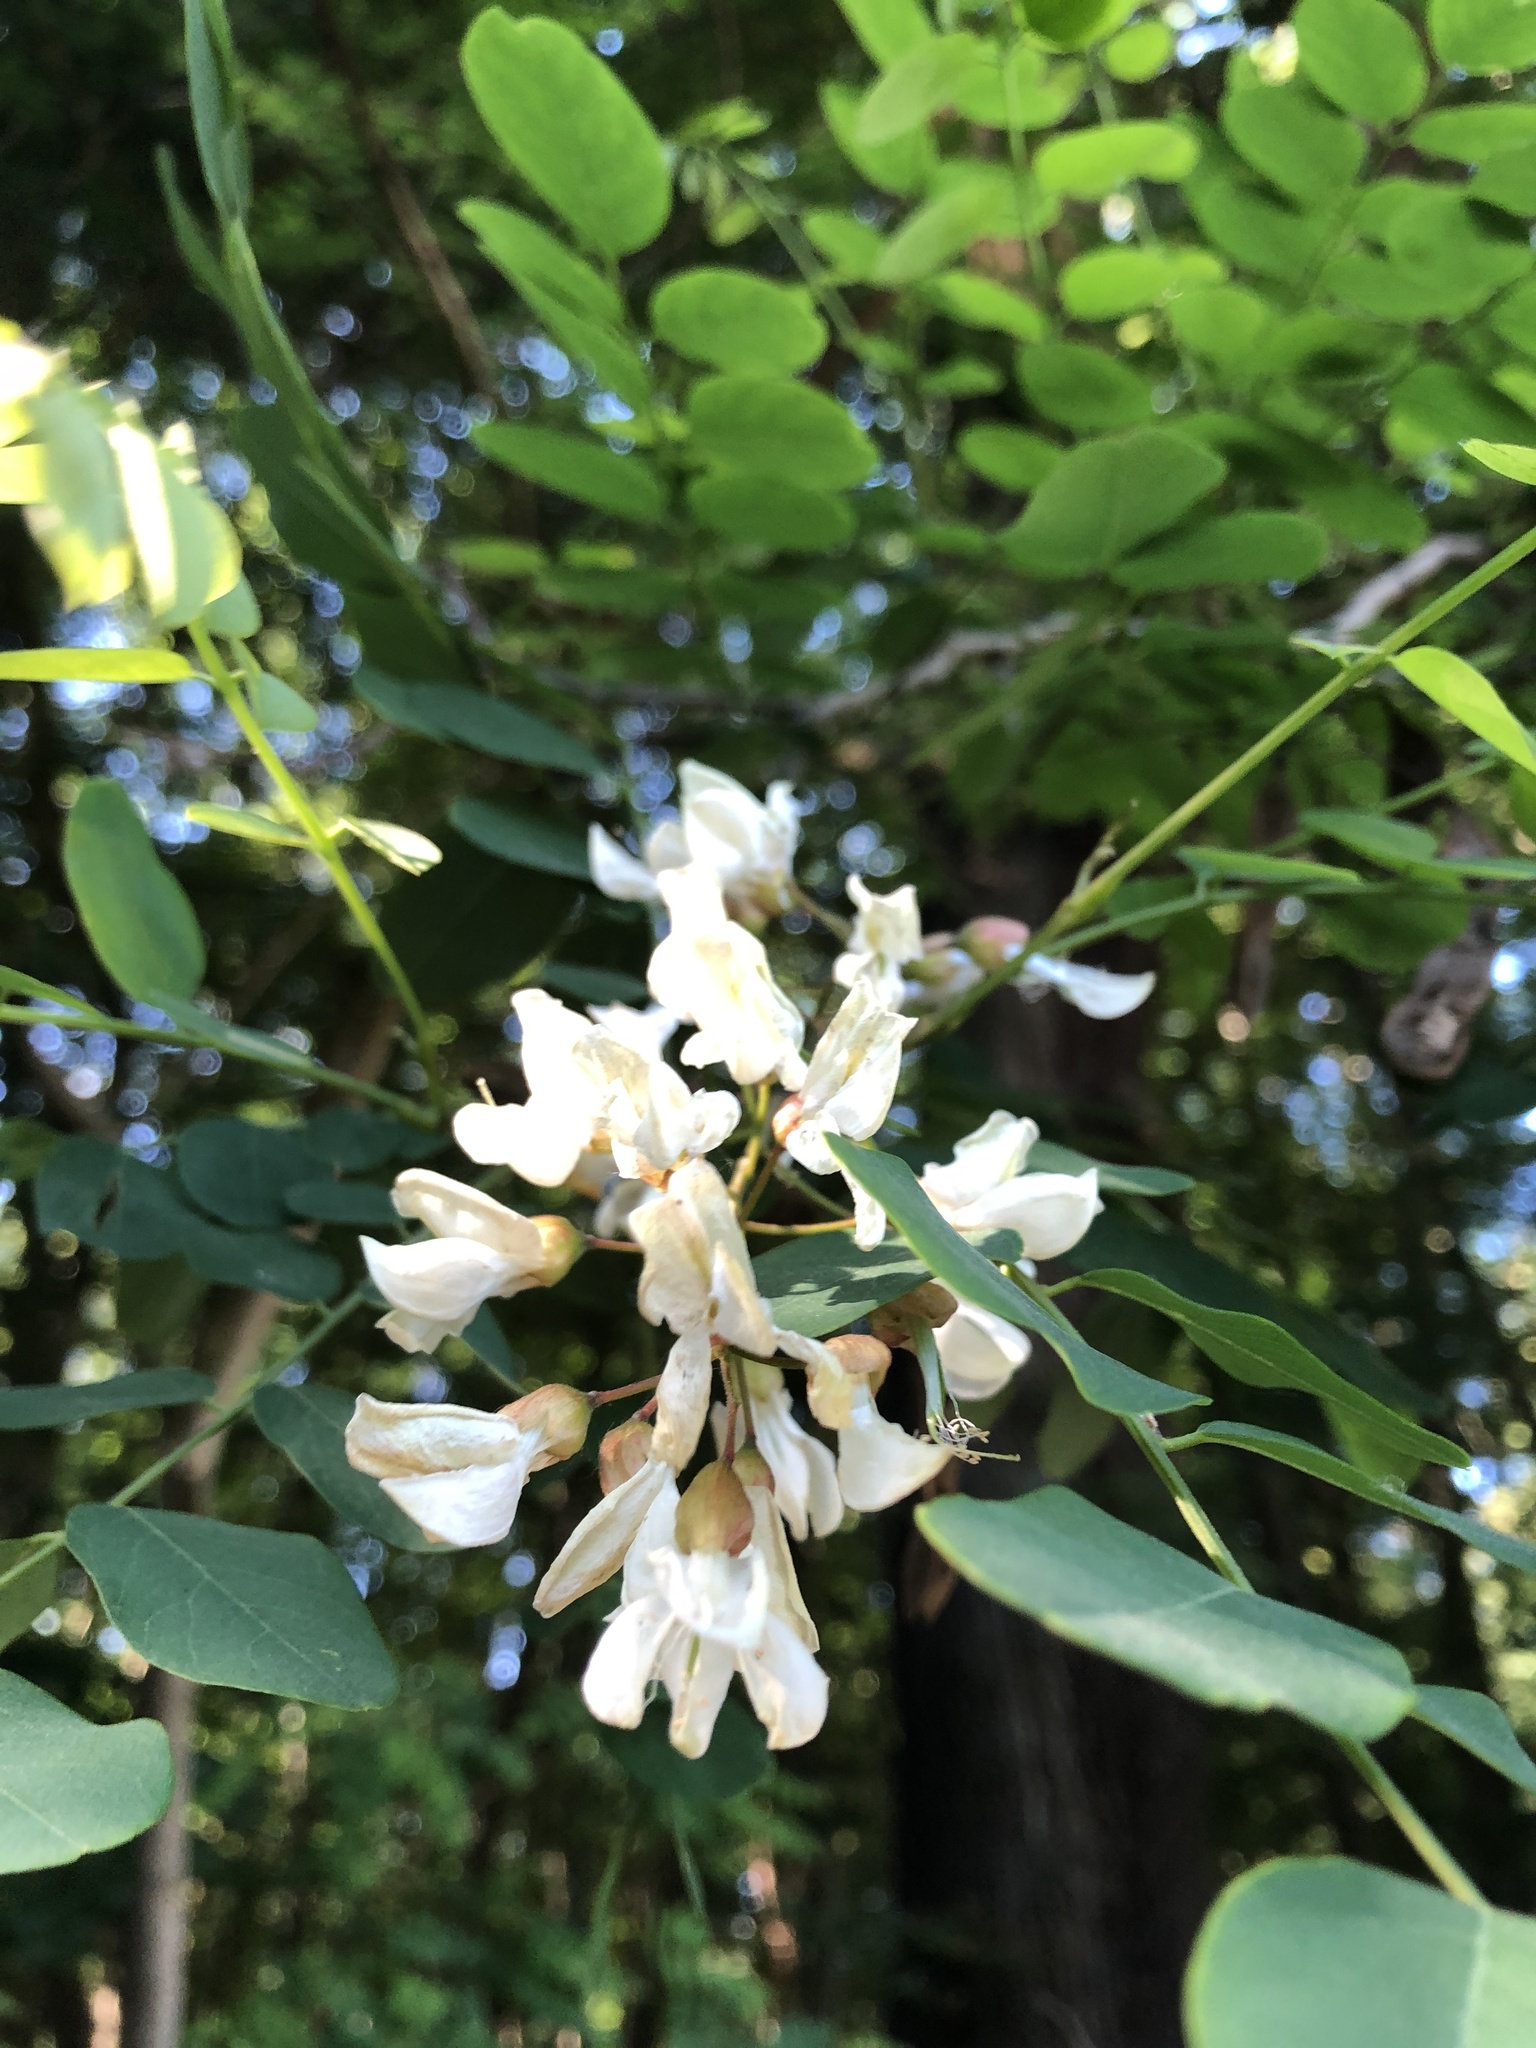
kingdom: Plantae
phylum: Tracheophyta
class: Magnoliopsida
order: Fabales
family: Fabaceae
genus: Robinia
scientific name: Robinia pseudoacacia
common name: Black locust
